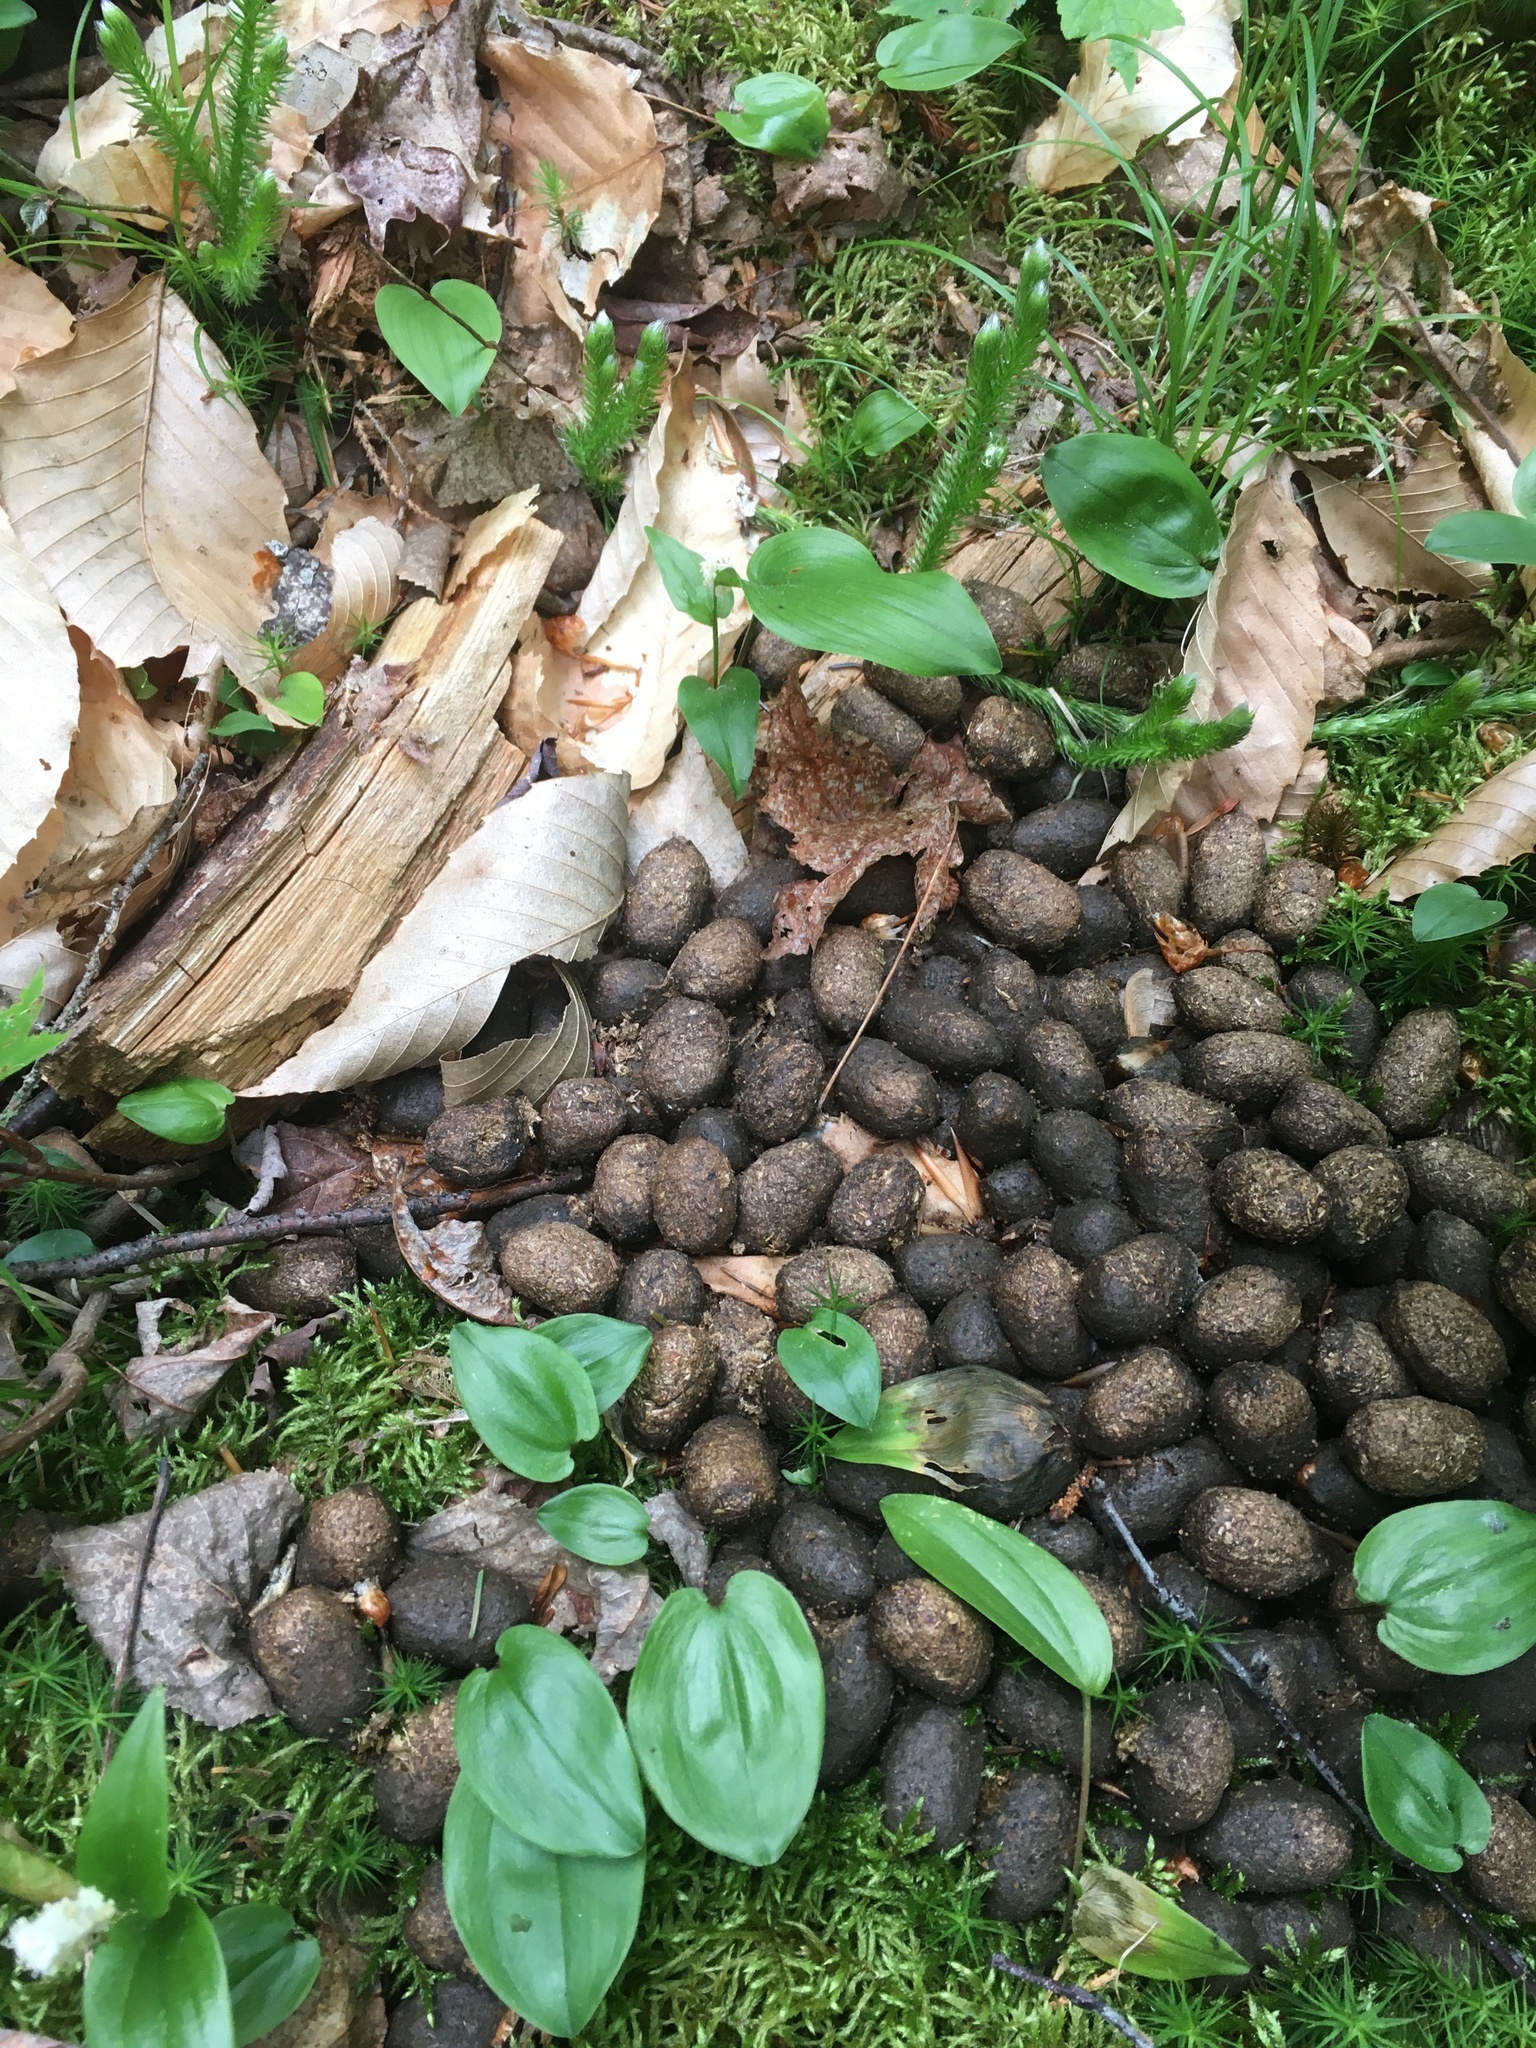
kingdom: Animalia
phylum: Chordata
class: Mammalia
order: Artiodactyla
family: Cervidae
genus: Alces
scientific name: Alces alces
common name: Moose
